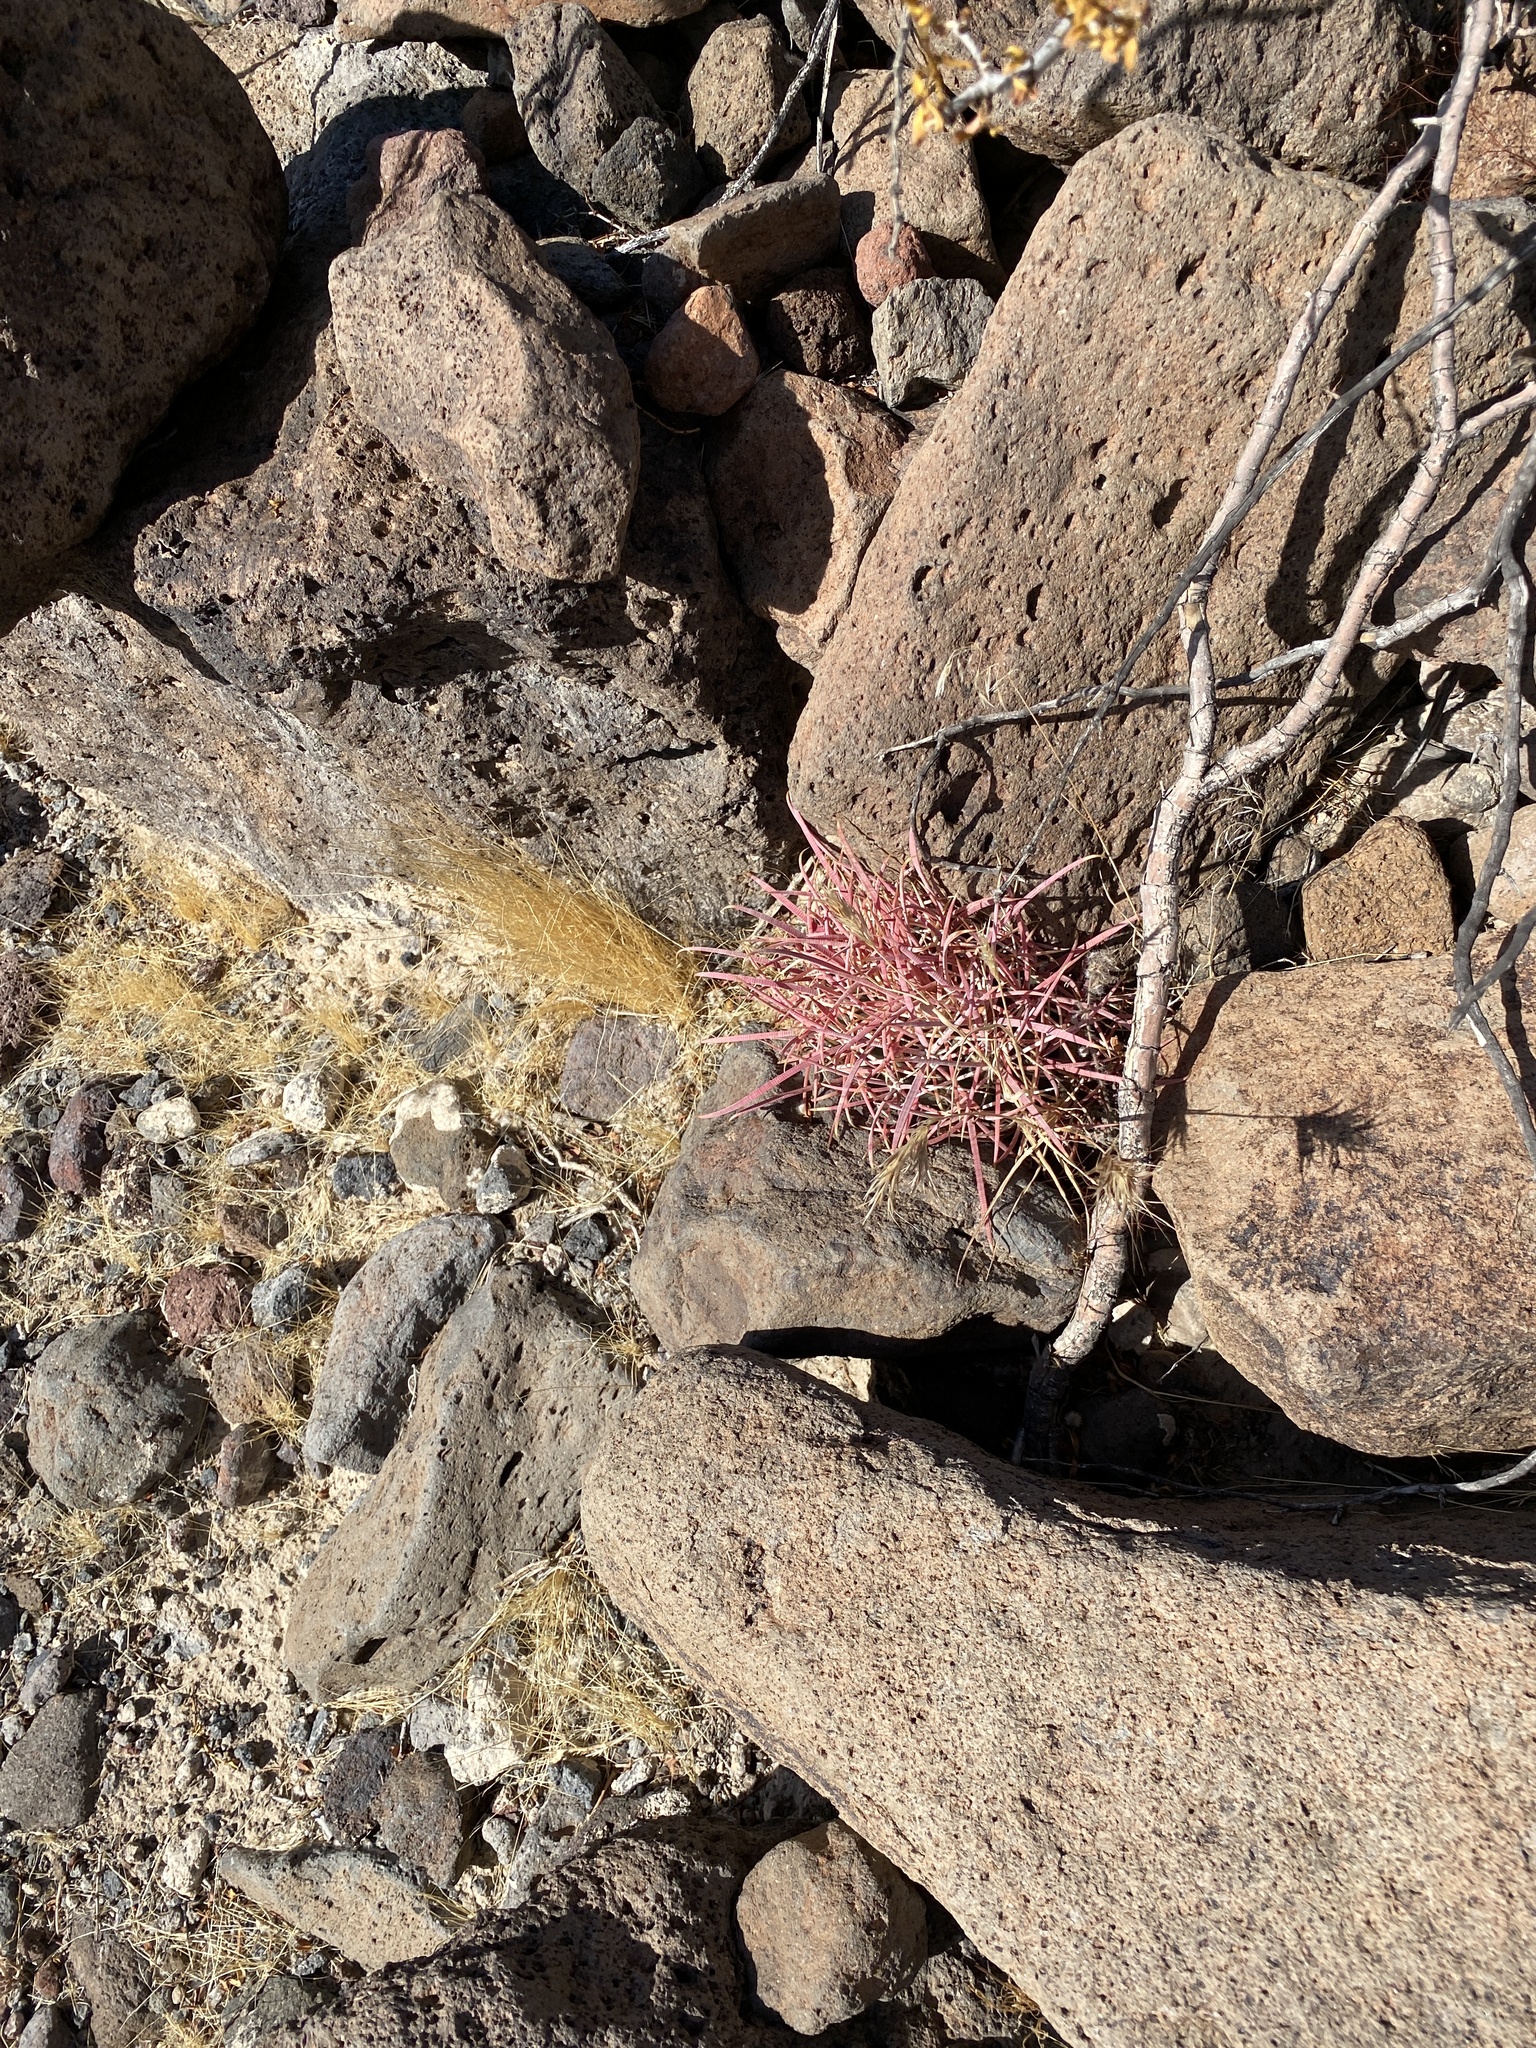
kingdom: Plantae
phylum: Tracheophyta
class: Magnoliopsida
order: Caryophyllales
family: Cactaceae
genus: Ferocactus
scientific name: Ferocactus cylindraceus
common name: California barrel cactus
